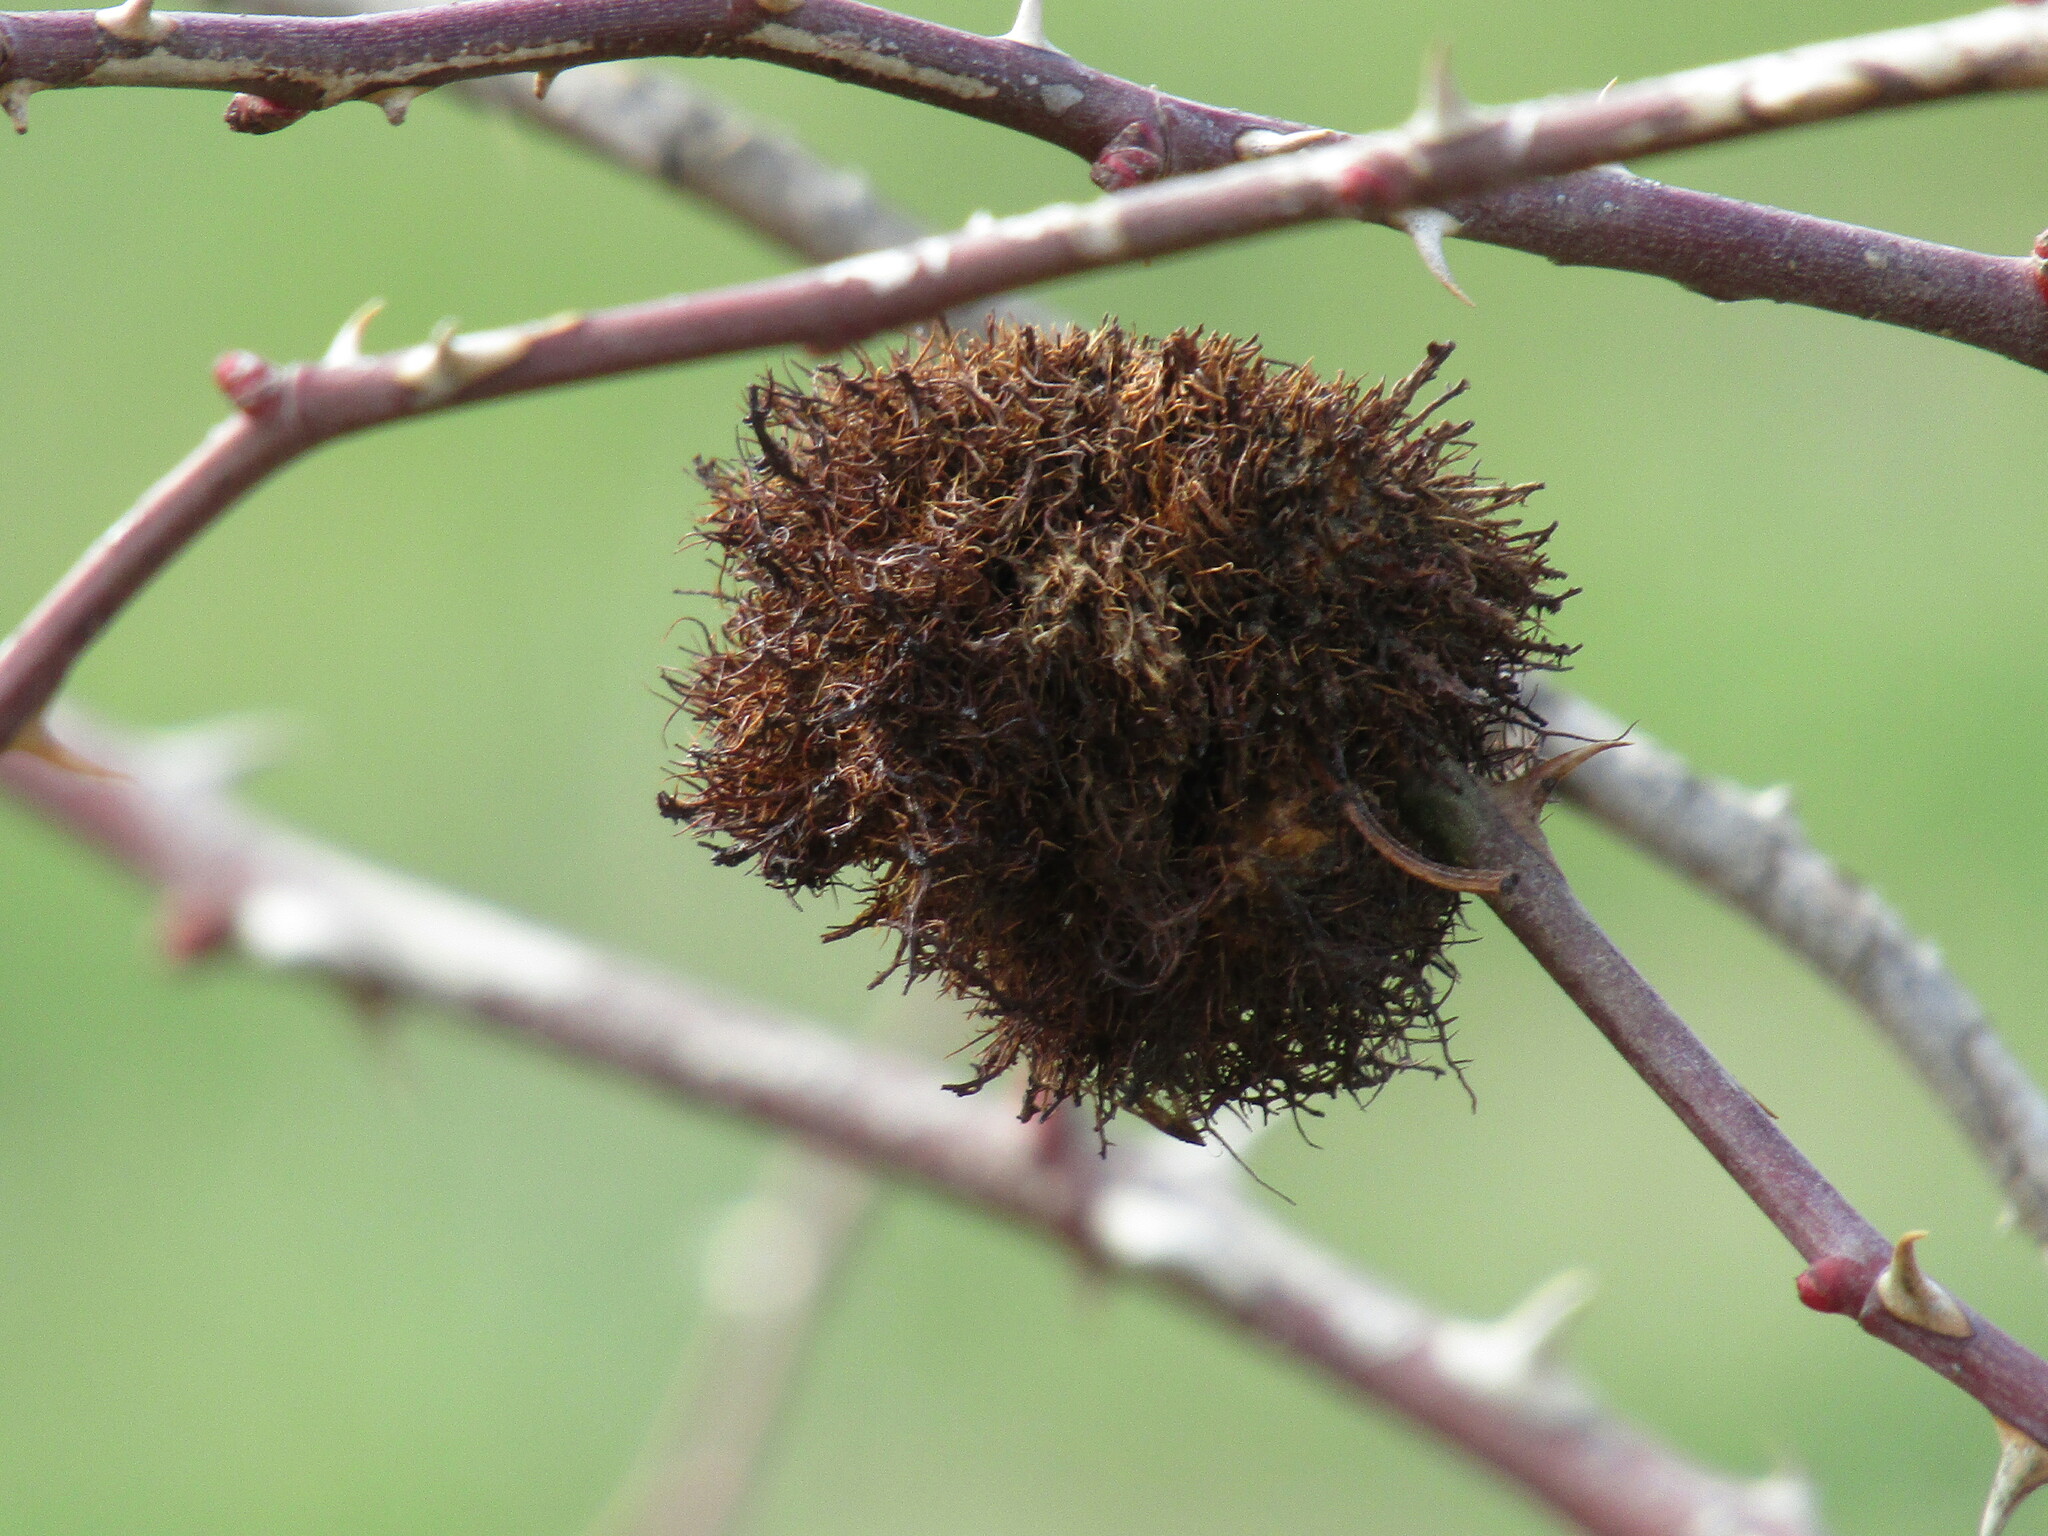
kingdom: Animalia
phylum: Arthropoda
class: Insecta
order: Hymenoptera
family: Cynipidae
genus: Diplolepis
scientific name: Diplolepis rosae
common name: Bedeguar gall
